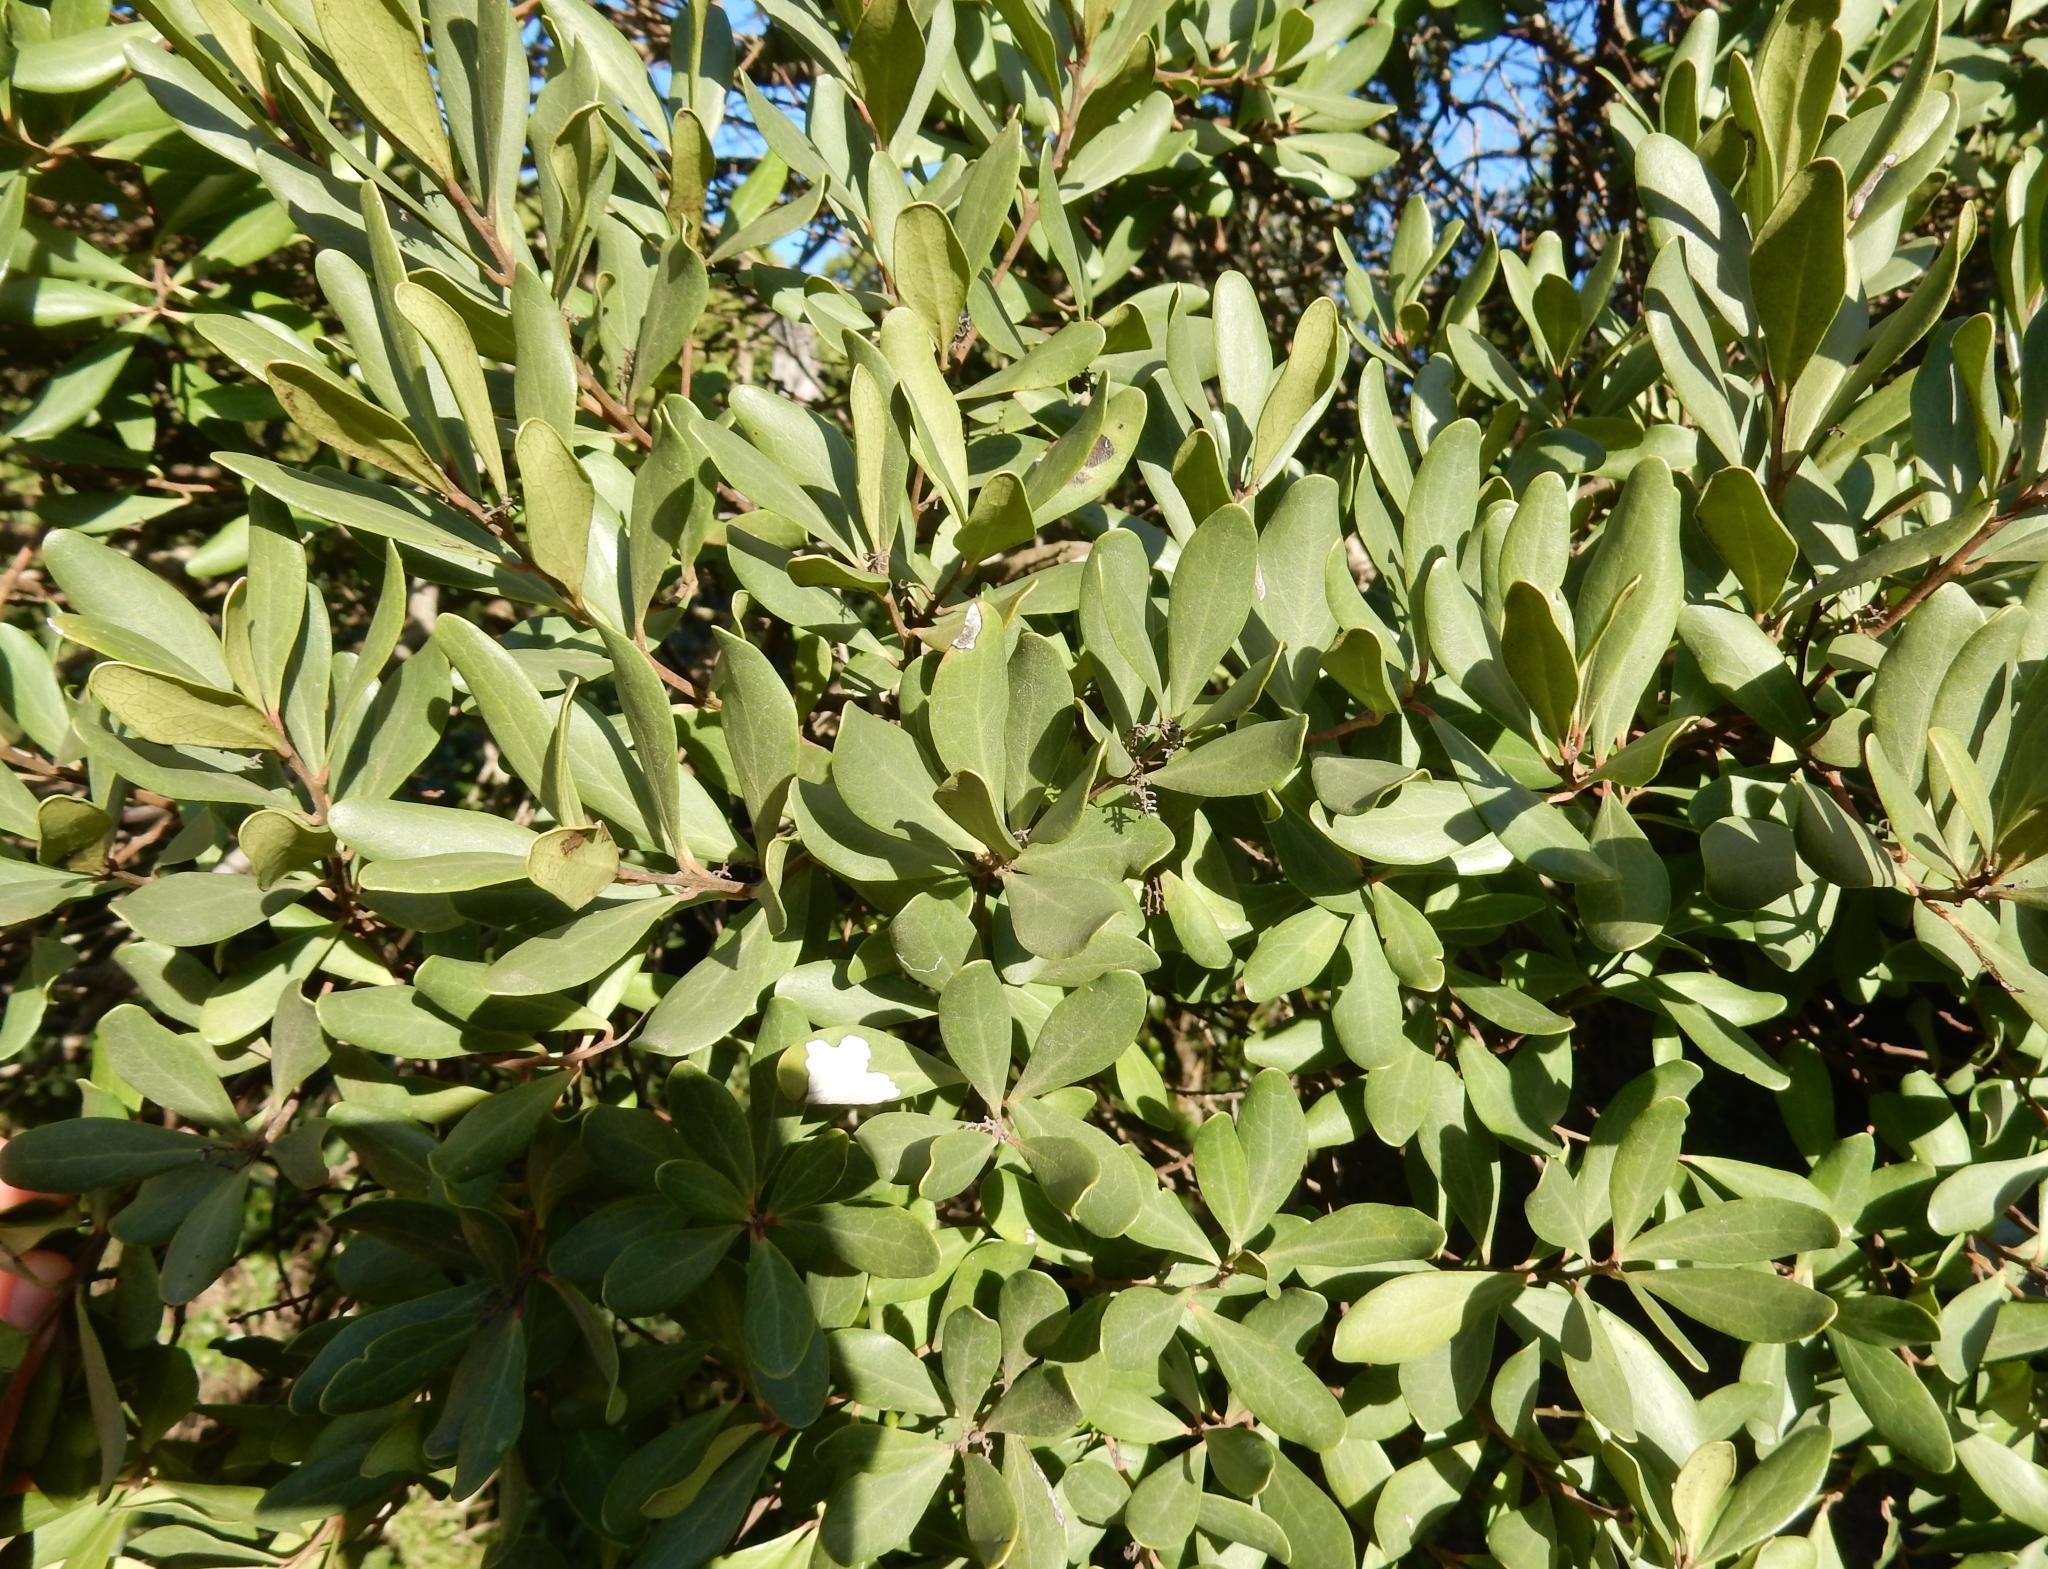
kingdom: Plantae
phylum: Tracheophyta
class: Magnoliopsida
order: Ericales
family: Ebenaceae
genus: Euclea
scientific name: Euclea racemosa
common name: Dune guarri
